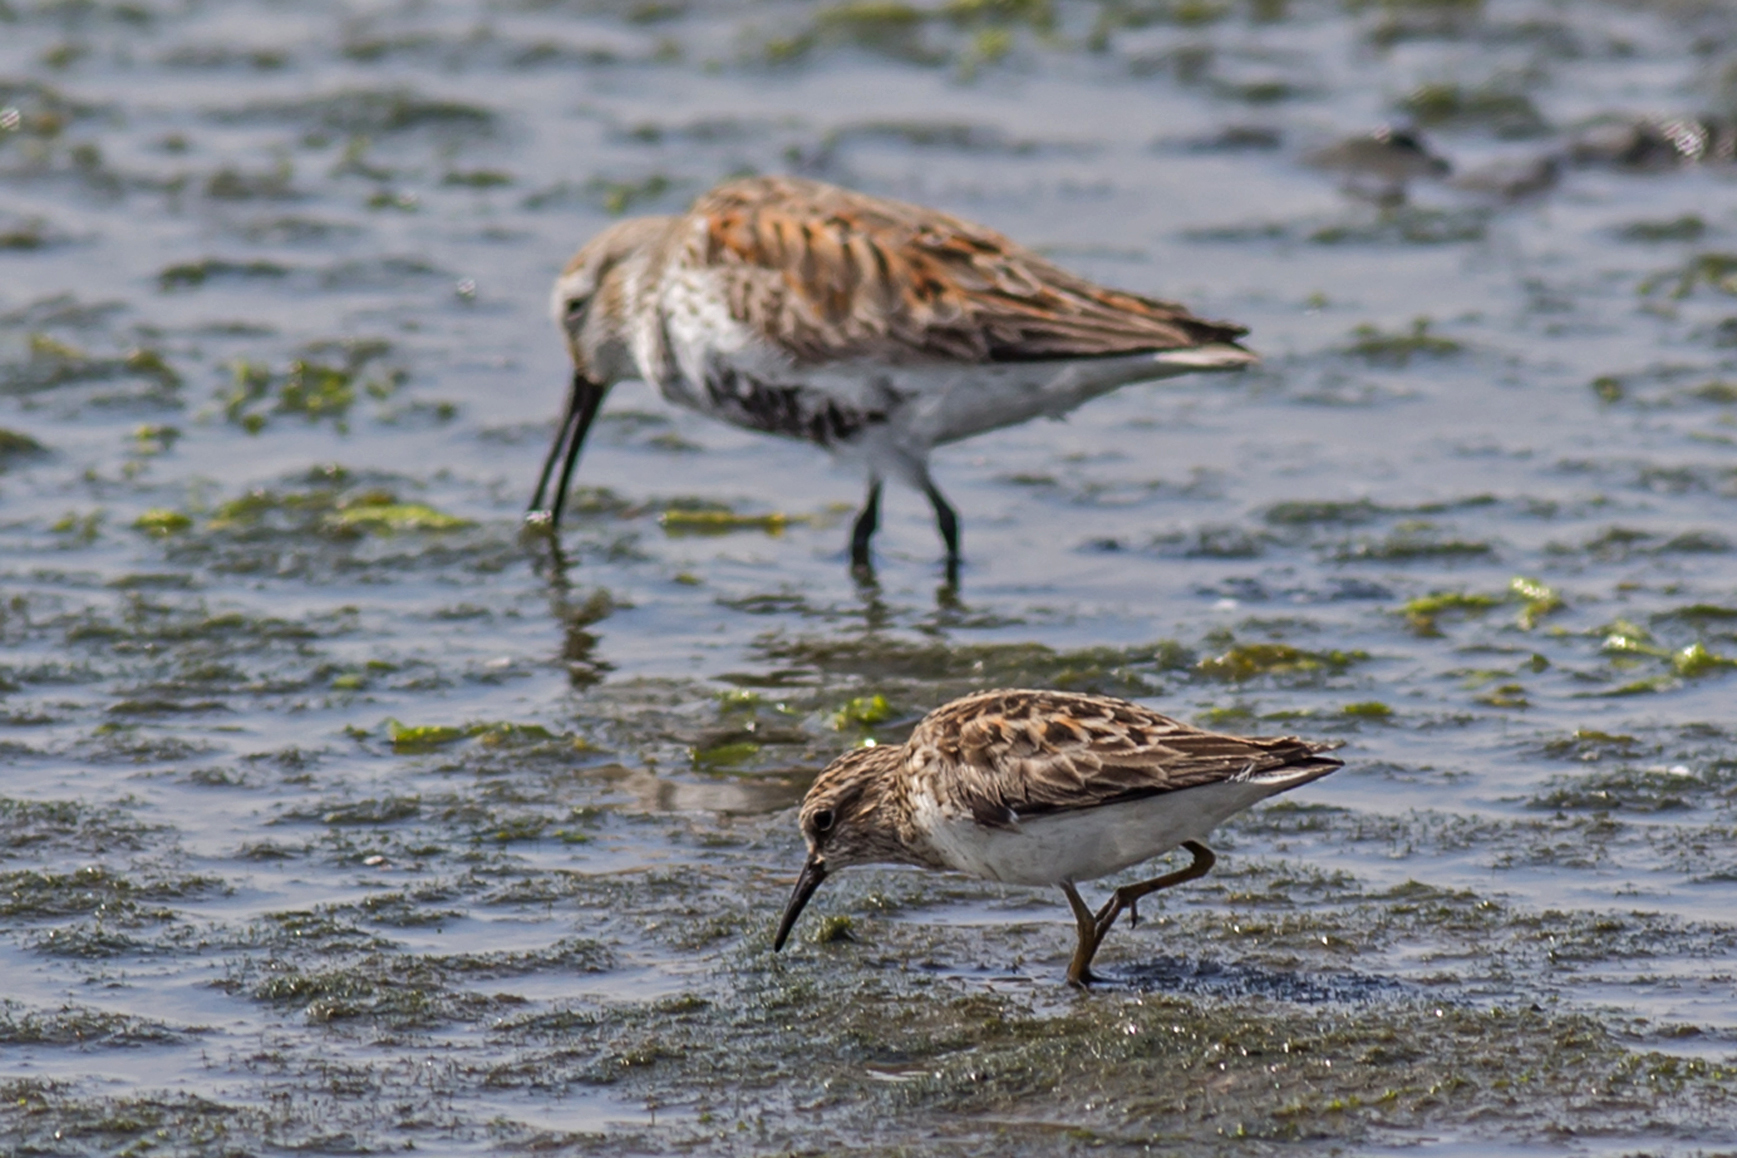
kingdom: Animalia
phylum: Chordata
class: Aves
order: Charadriiformes
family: Scolopacidae
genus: Calidris
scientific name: Calidris minutilla
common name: Least sandpiper
